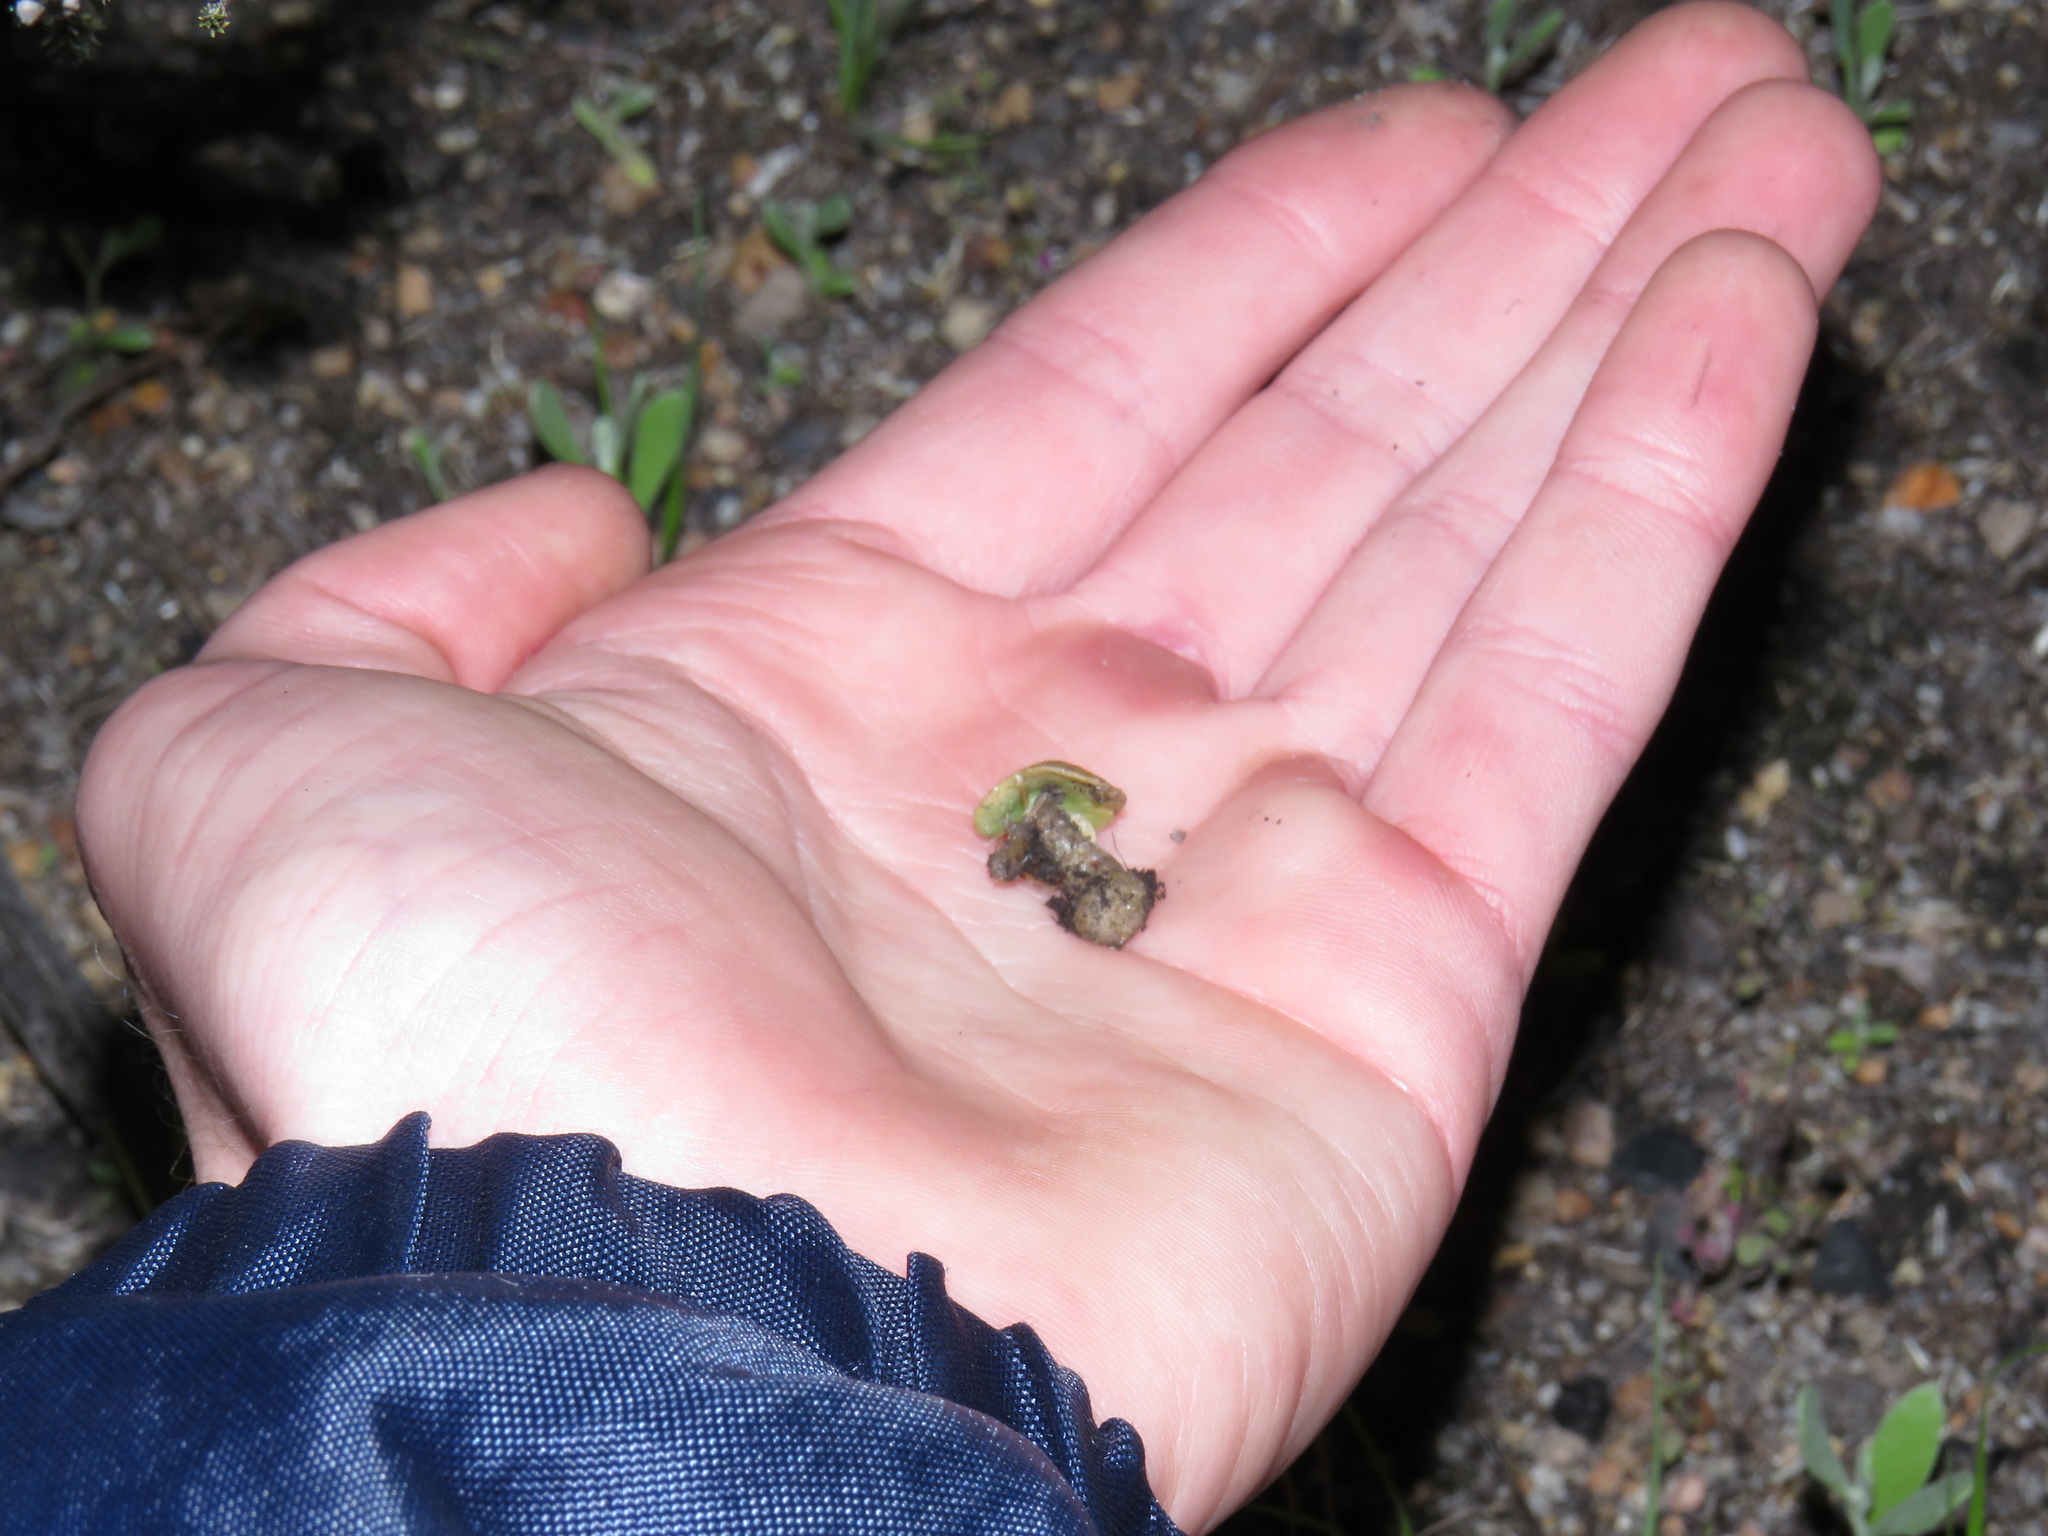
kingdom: Plantae
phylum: Tracheophyta
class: Liliopsida
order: Asparagales
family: Orchidaceae
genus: Holothrix
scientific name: Holothrix villosa
